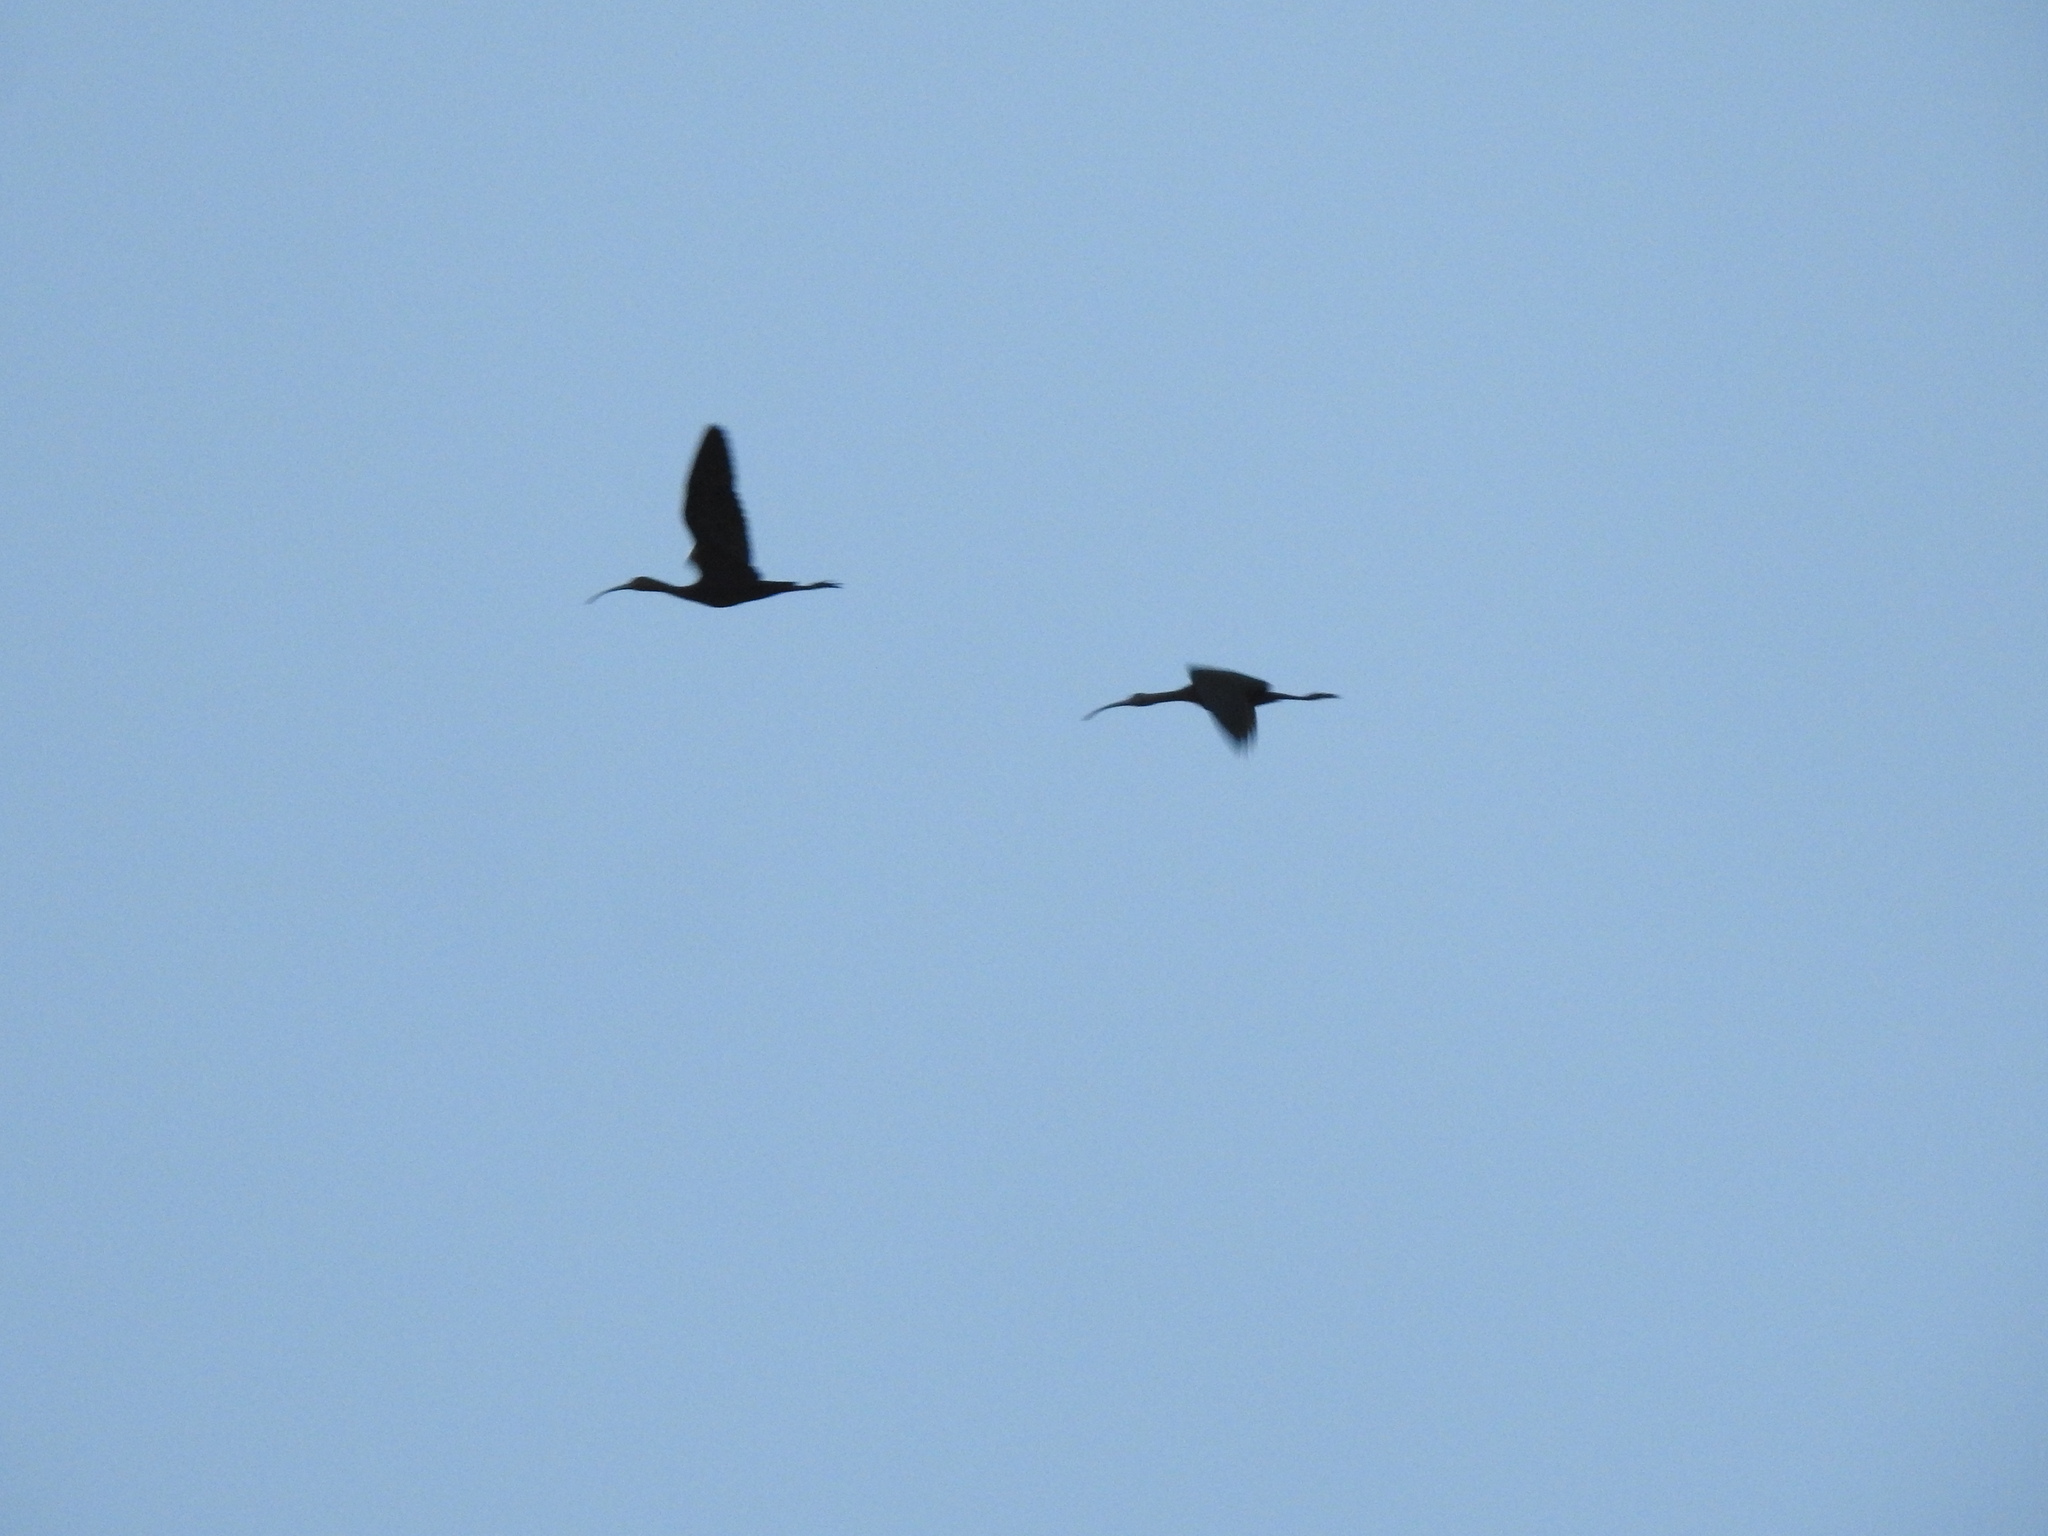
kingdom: Animalia
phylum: Chordata
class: Aves
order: Pelecaniformes
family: Threskiornithidae
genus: Plegadis
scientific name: Plegadis chihi
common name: White-faced ibis
